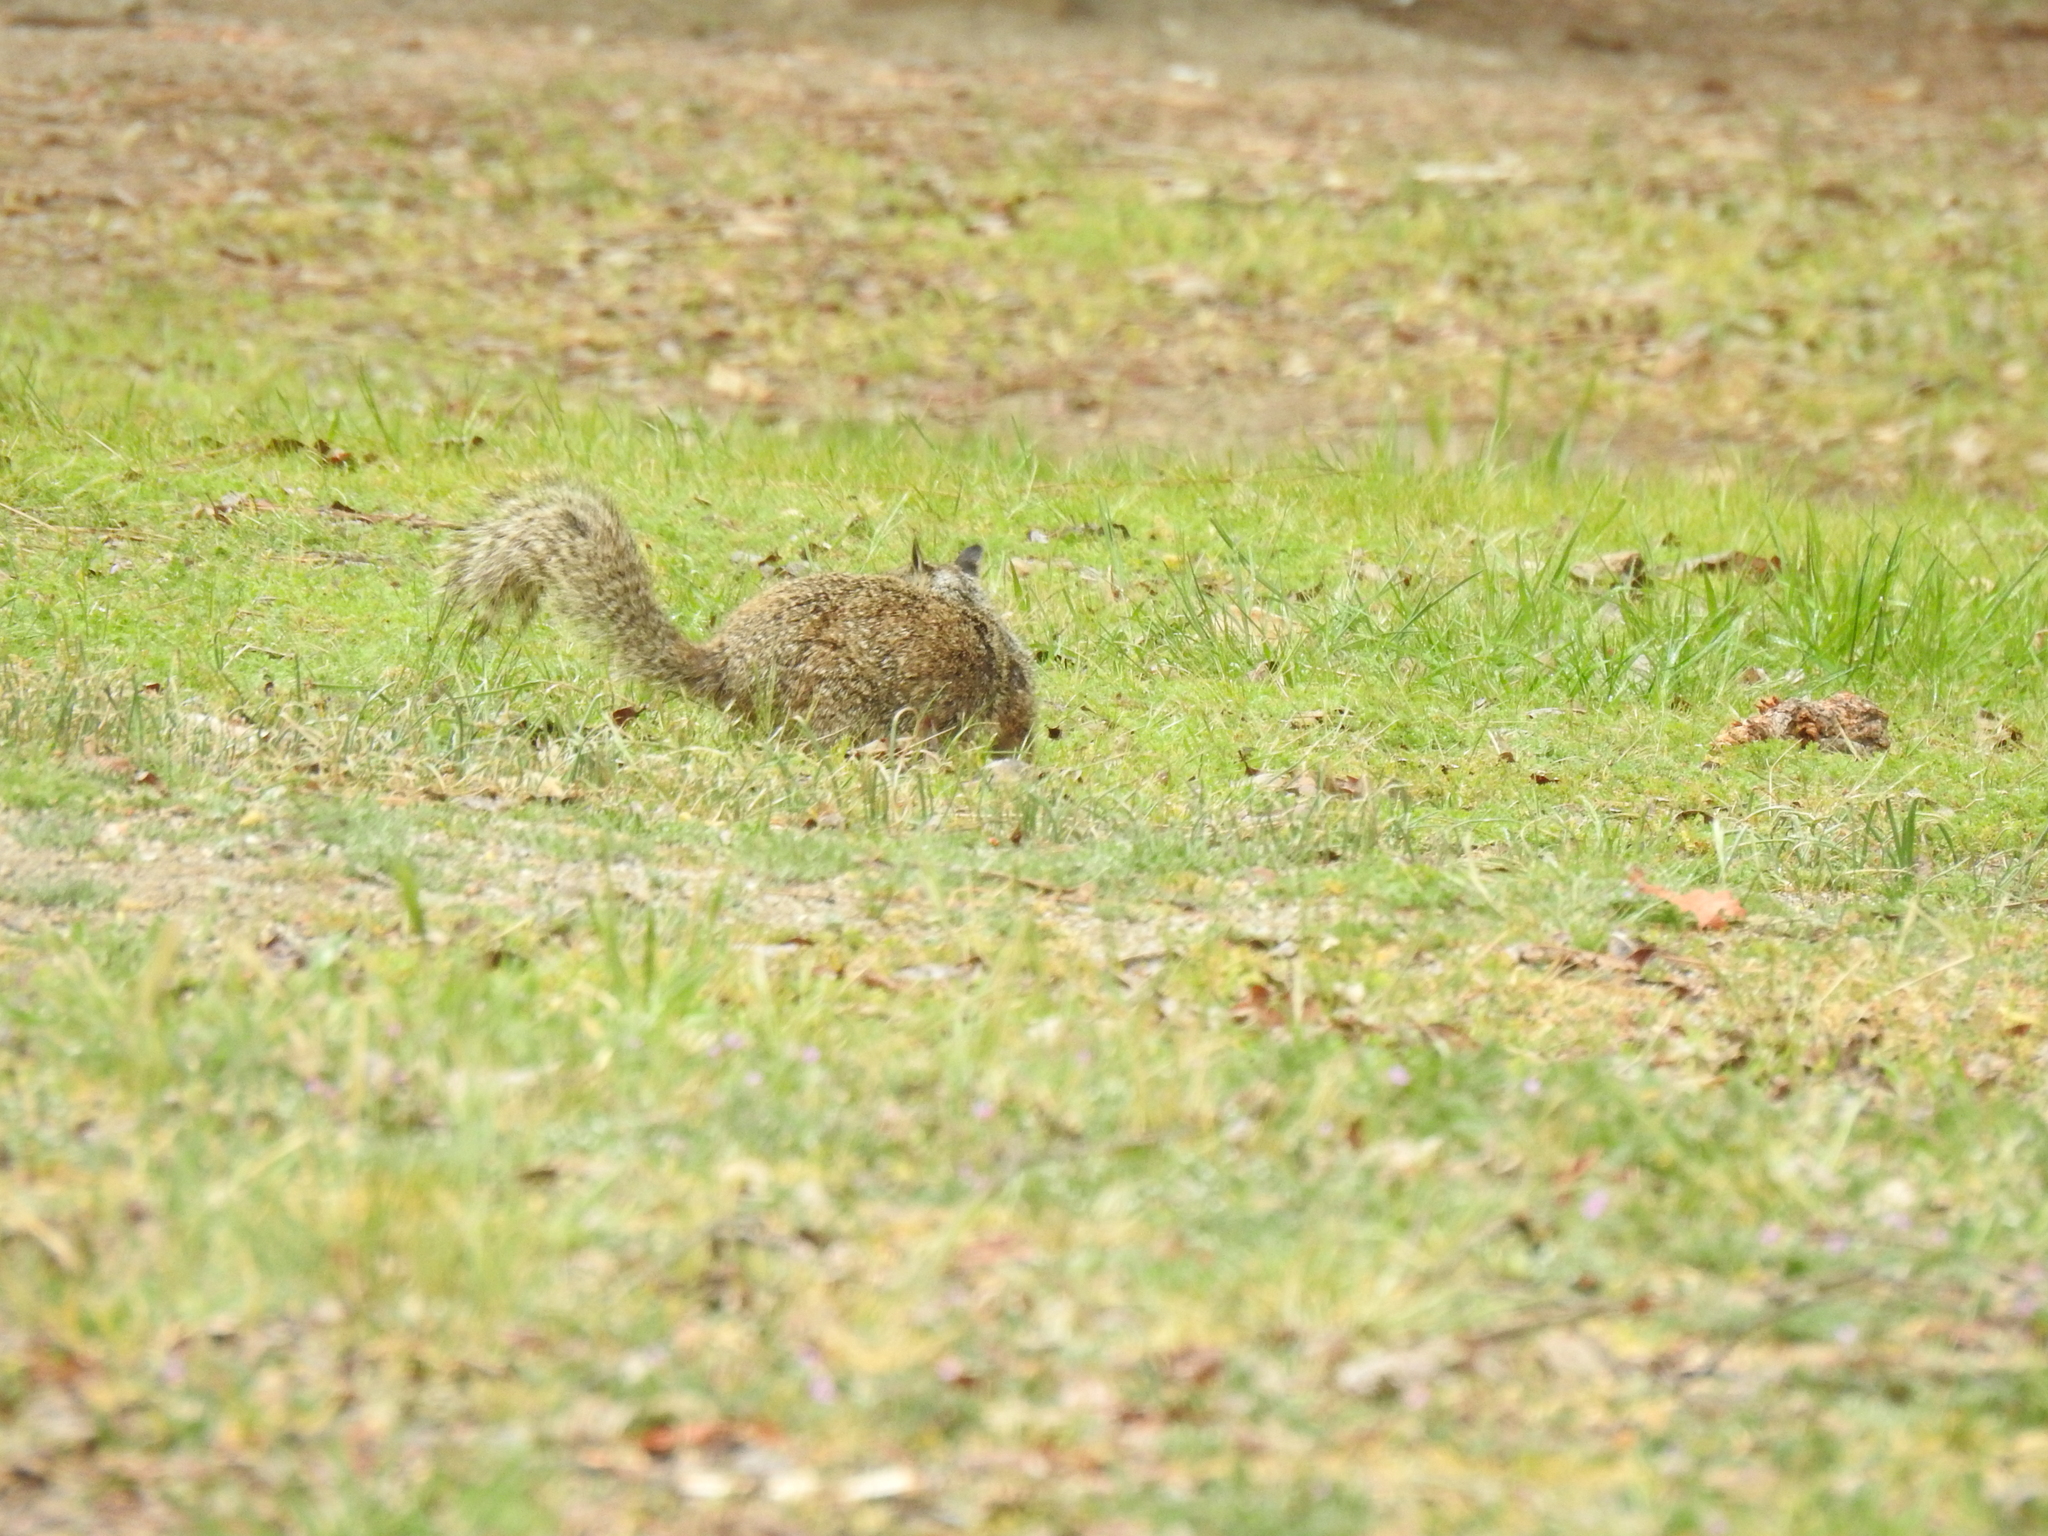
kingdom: Animalia
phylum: Chordata
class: Mammalia
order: Rodentia
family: Sciuridae
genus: Otospermophilus
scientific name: Otospermophilus beecheyi
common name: California ground squirrel
